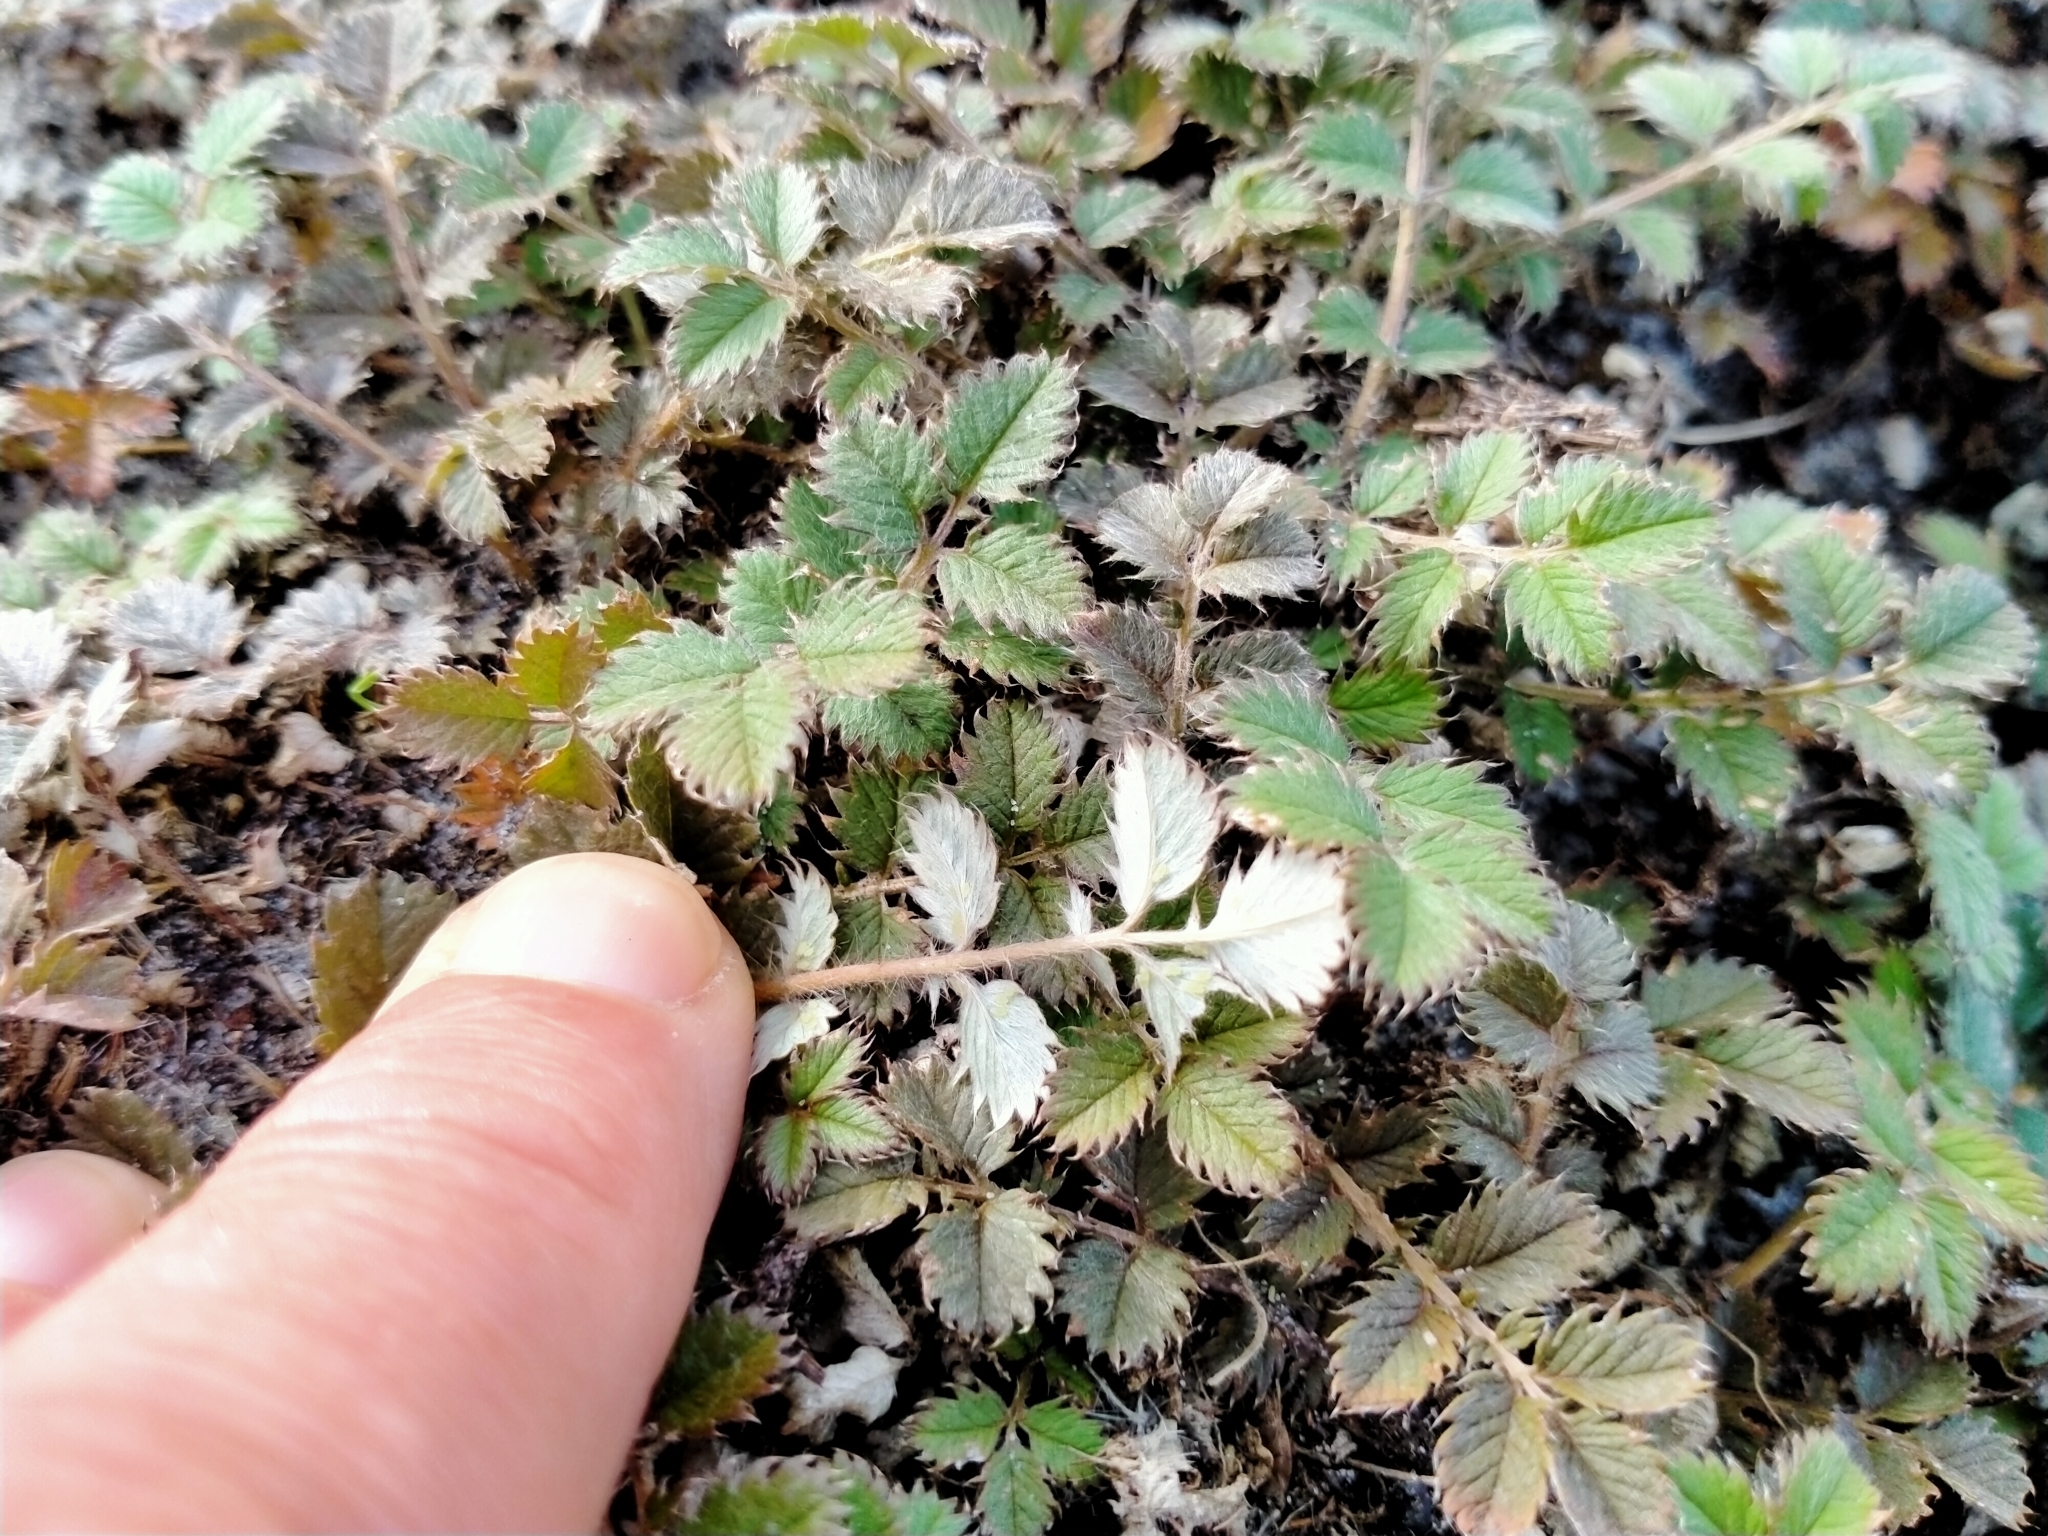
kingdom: Plantae
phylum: Tracheophyta
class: Magnoliopsida
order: Rosales
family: Rosaceae
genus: Argentina
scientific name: Argentina anserinoides
